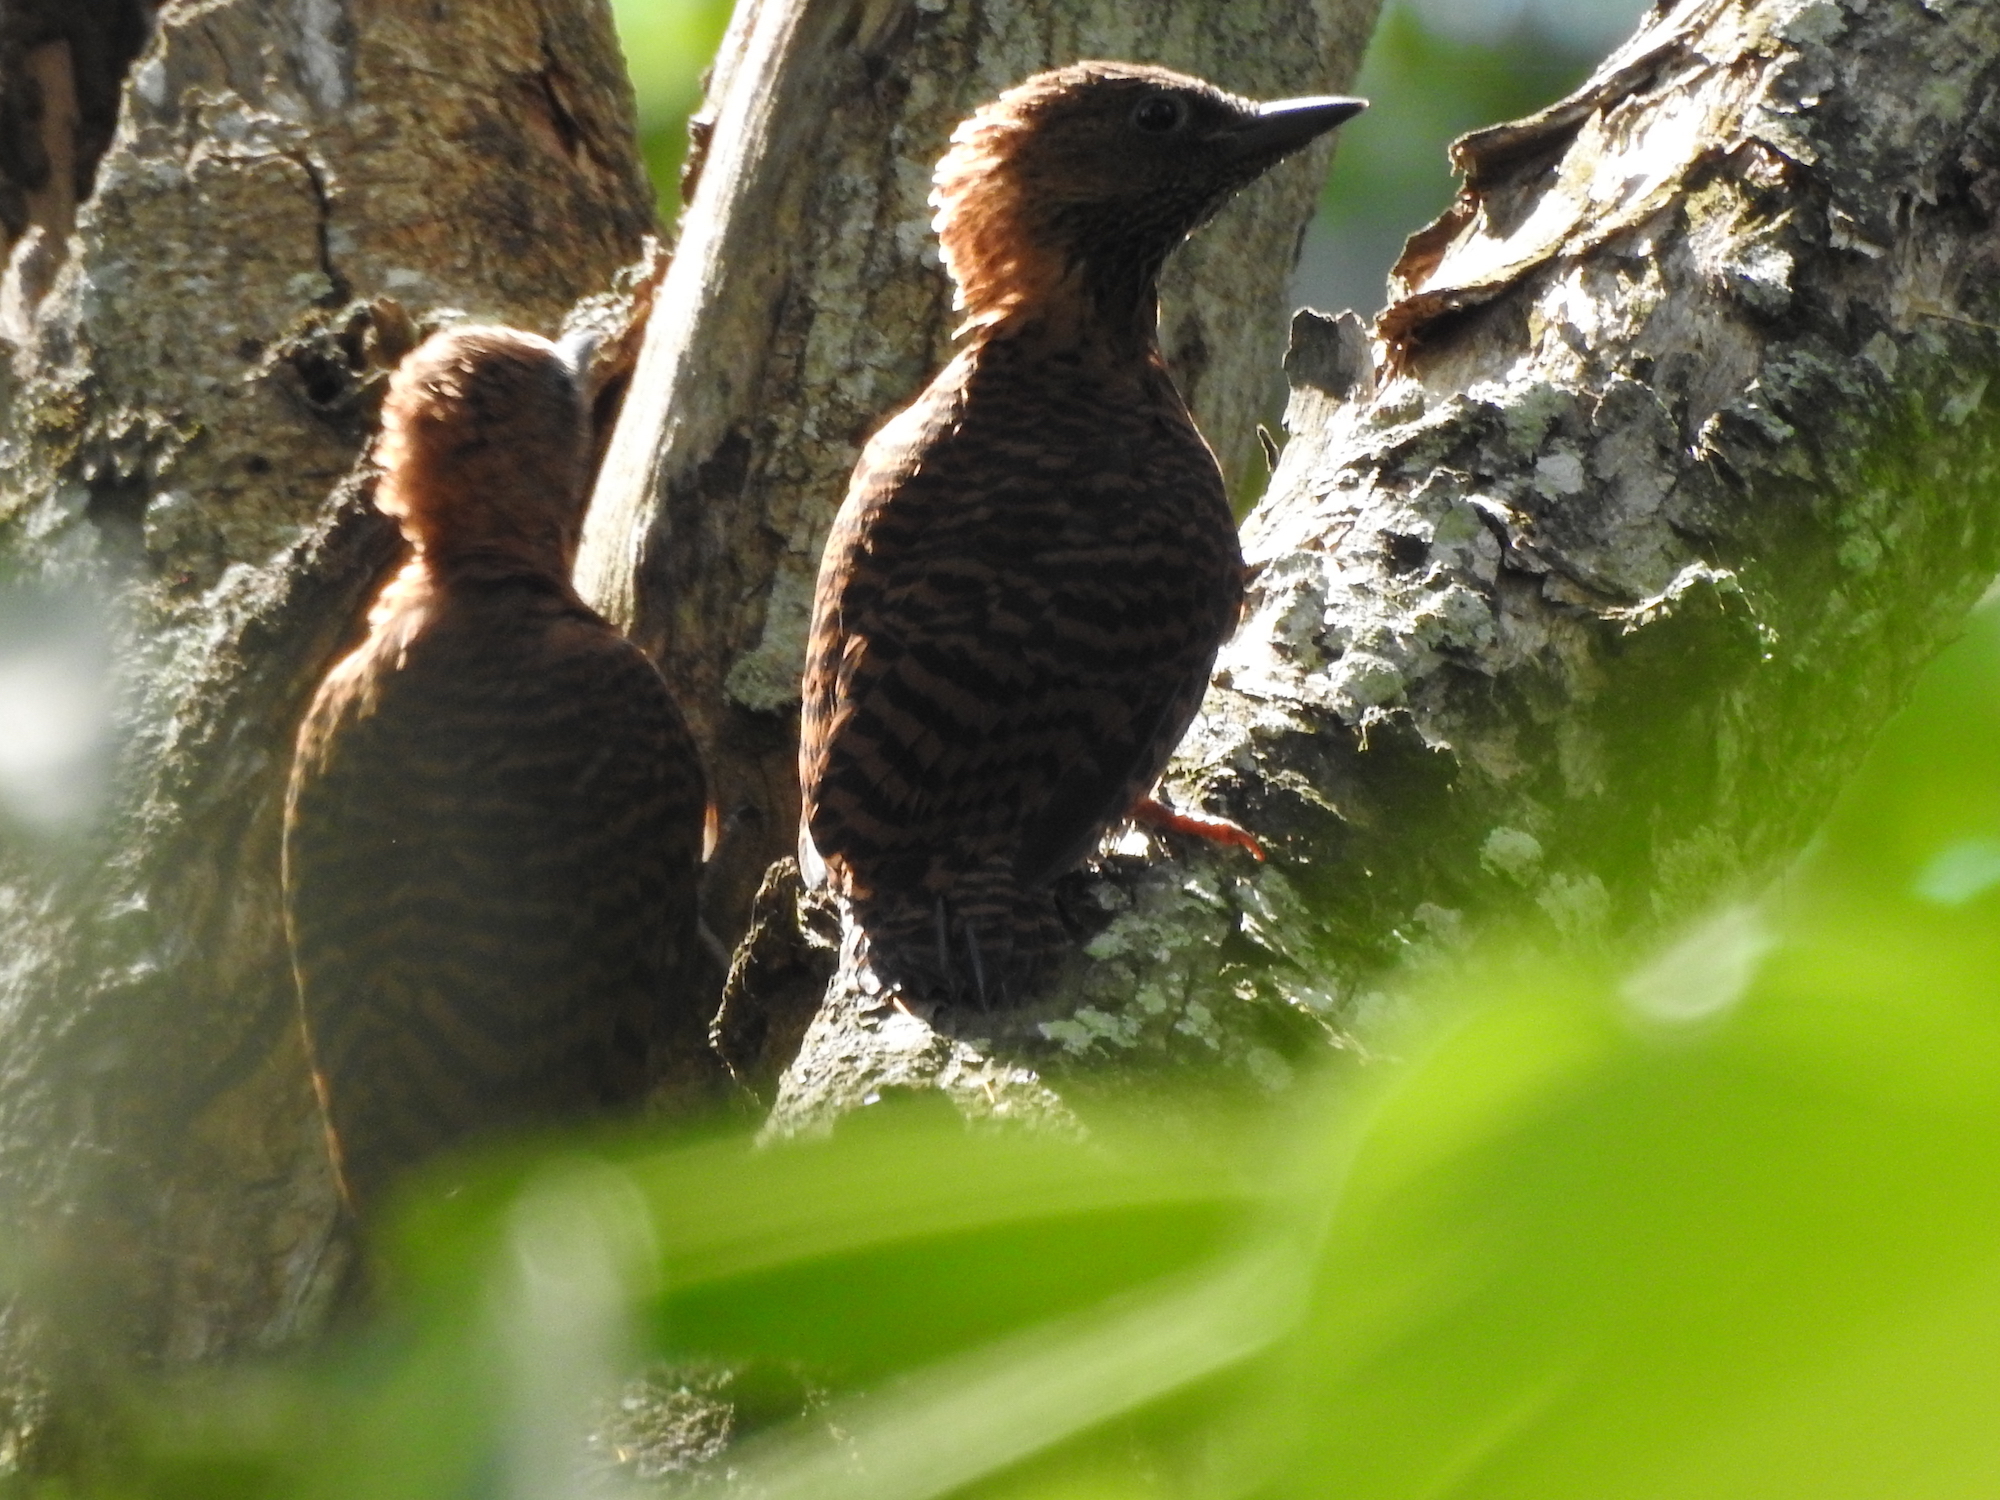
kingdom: Animalia
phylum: Chordata
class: Aves
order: Piciformes
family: Picidae
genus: Micropternus
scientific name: Micropternus brachyurus
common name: Rufous woodpecker
